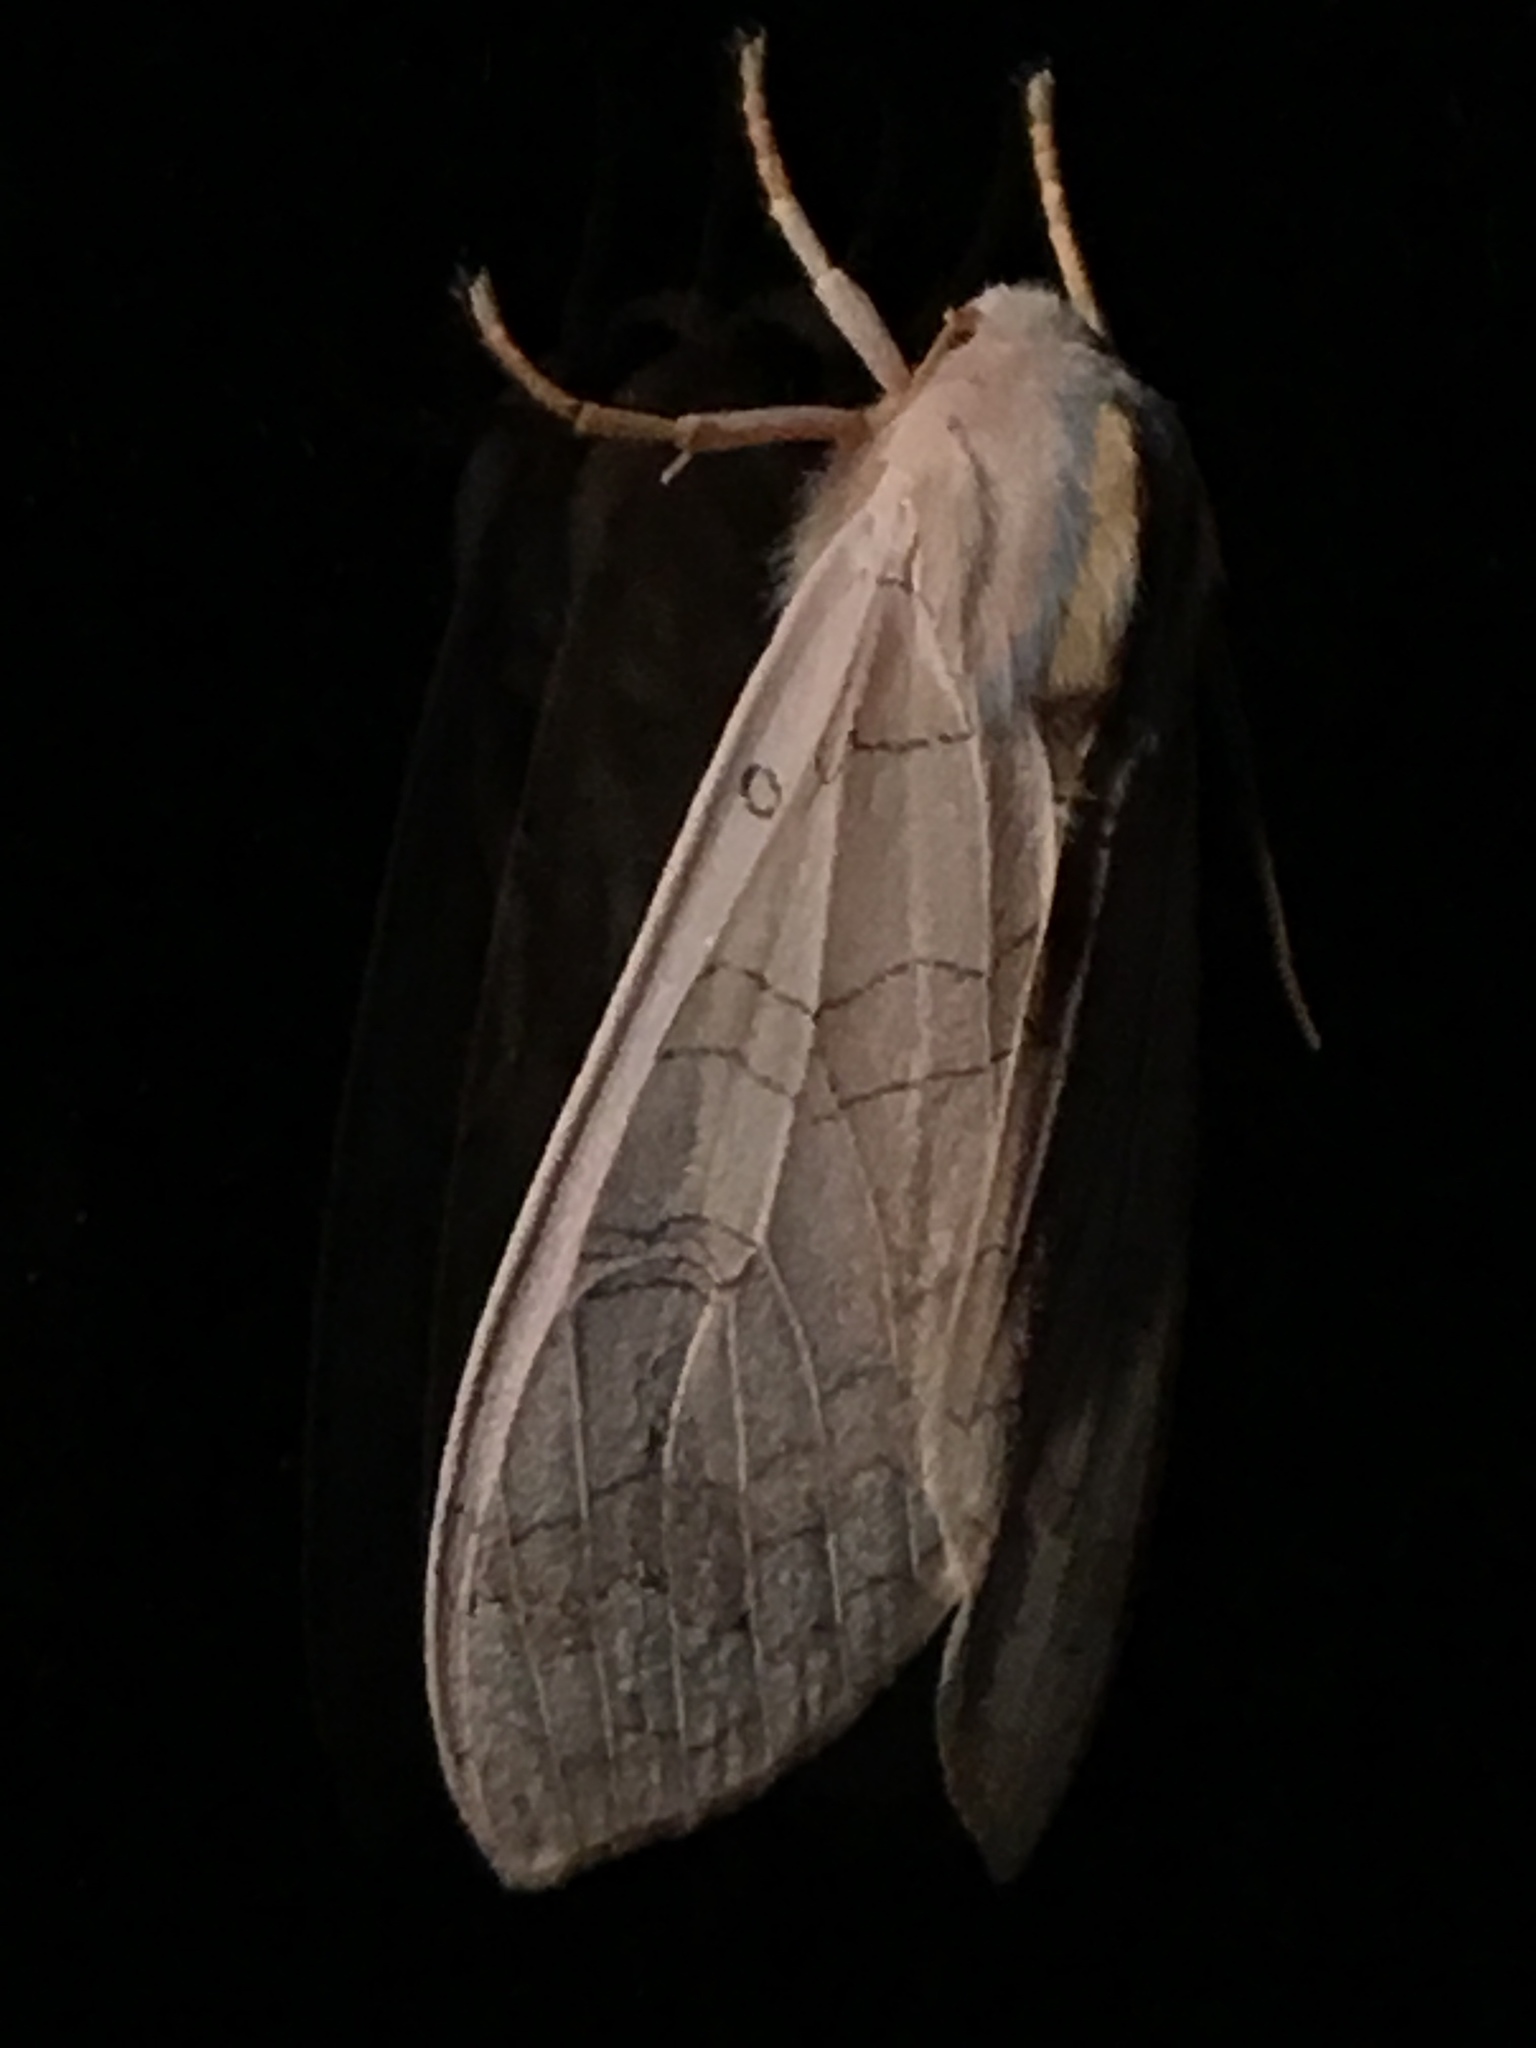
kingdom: Animalia
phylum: Arthropoda
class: Insecta
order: Lepidoptera
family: Erebidae
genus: Halysidota
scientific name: Halysidota tessellaris
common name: Banded tussock moth
